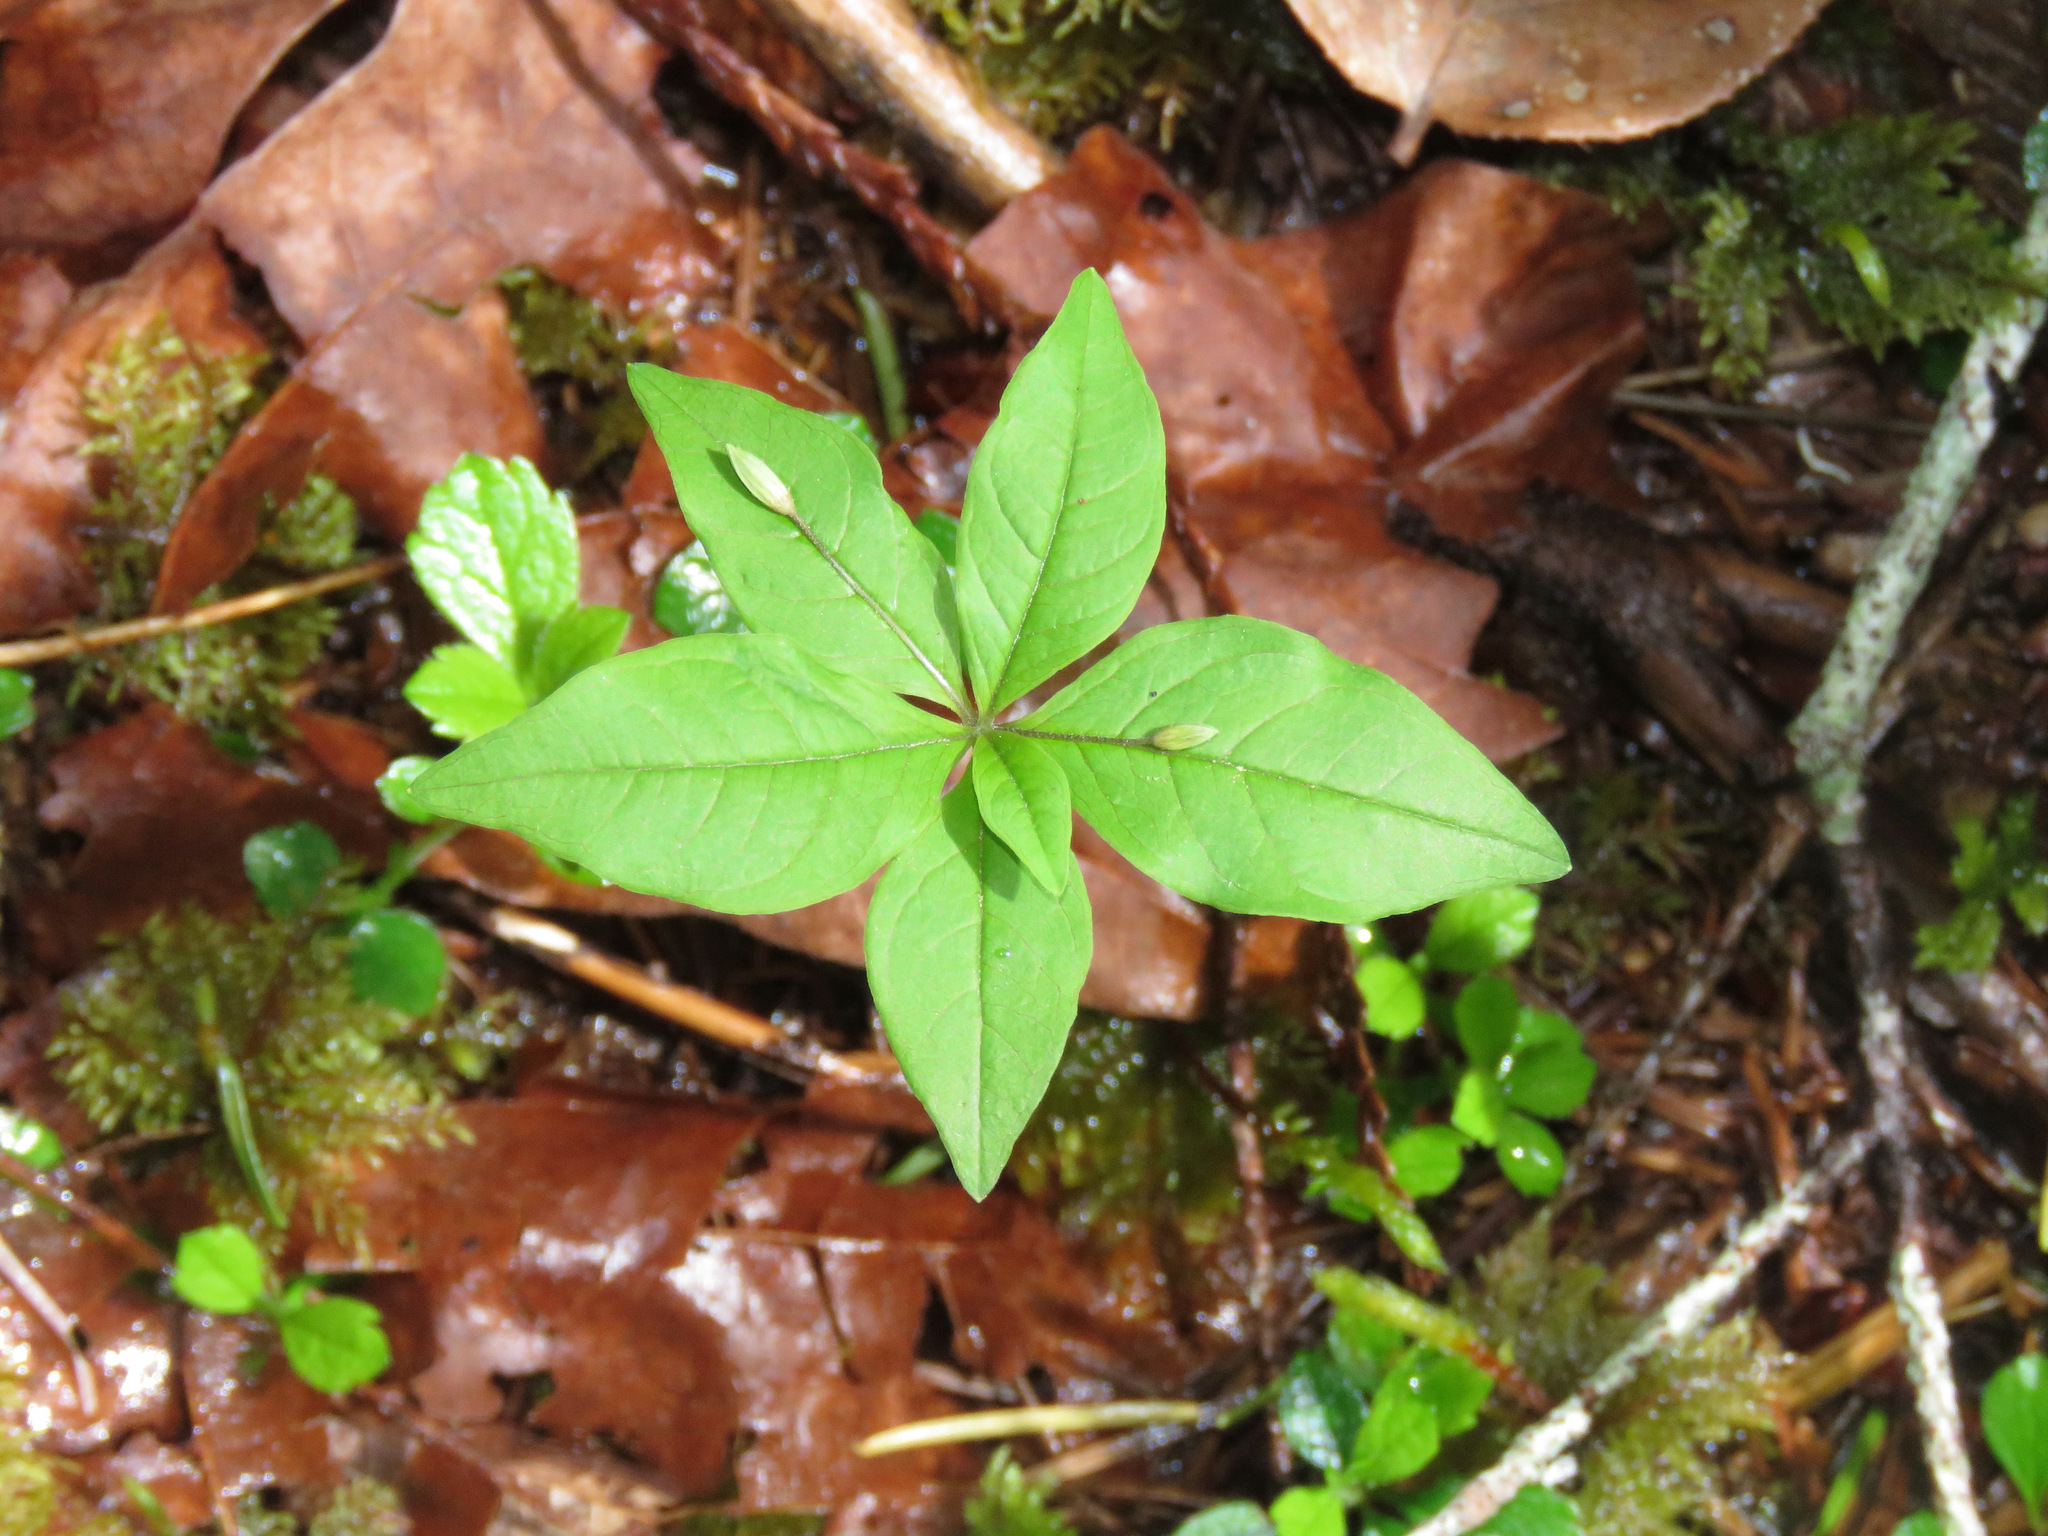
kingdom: Plantae
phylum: Tracheophyta
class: Magnoliopsida
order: Ericales
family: Primulaceae
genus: Lysimachia
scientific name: Lysimachia latifolia
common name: Pacific starflower
